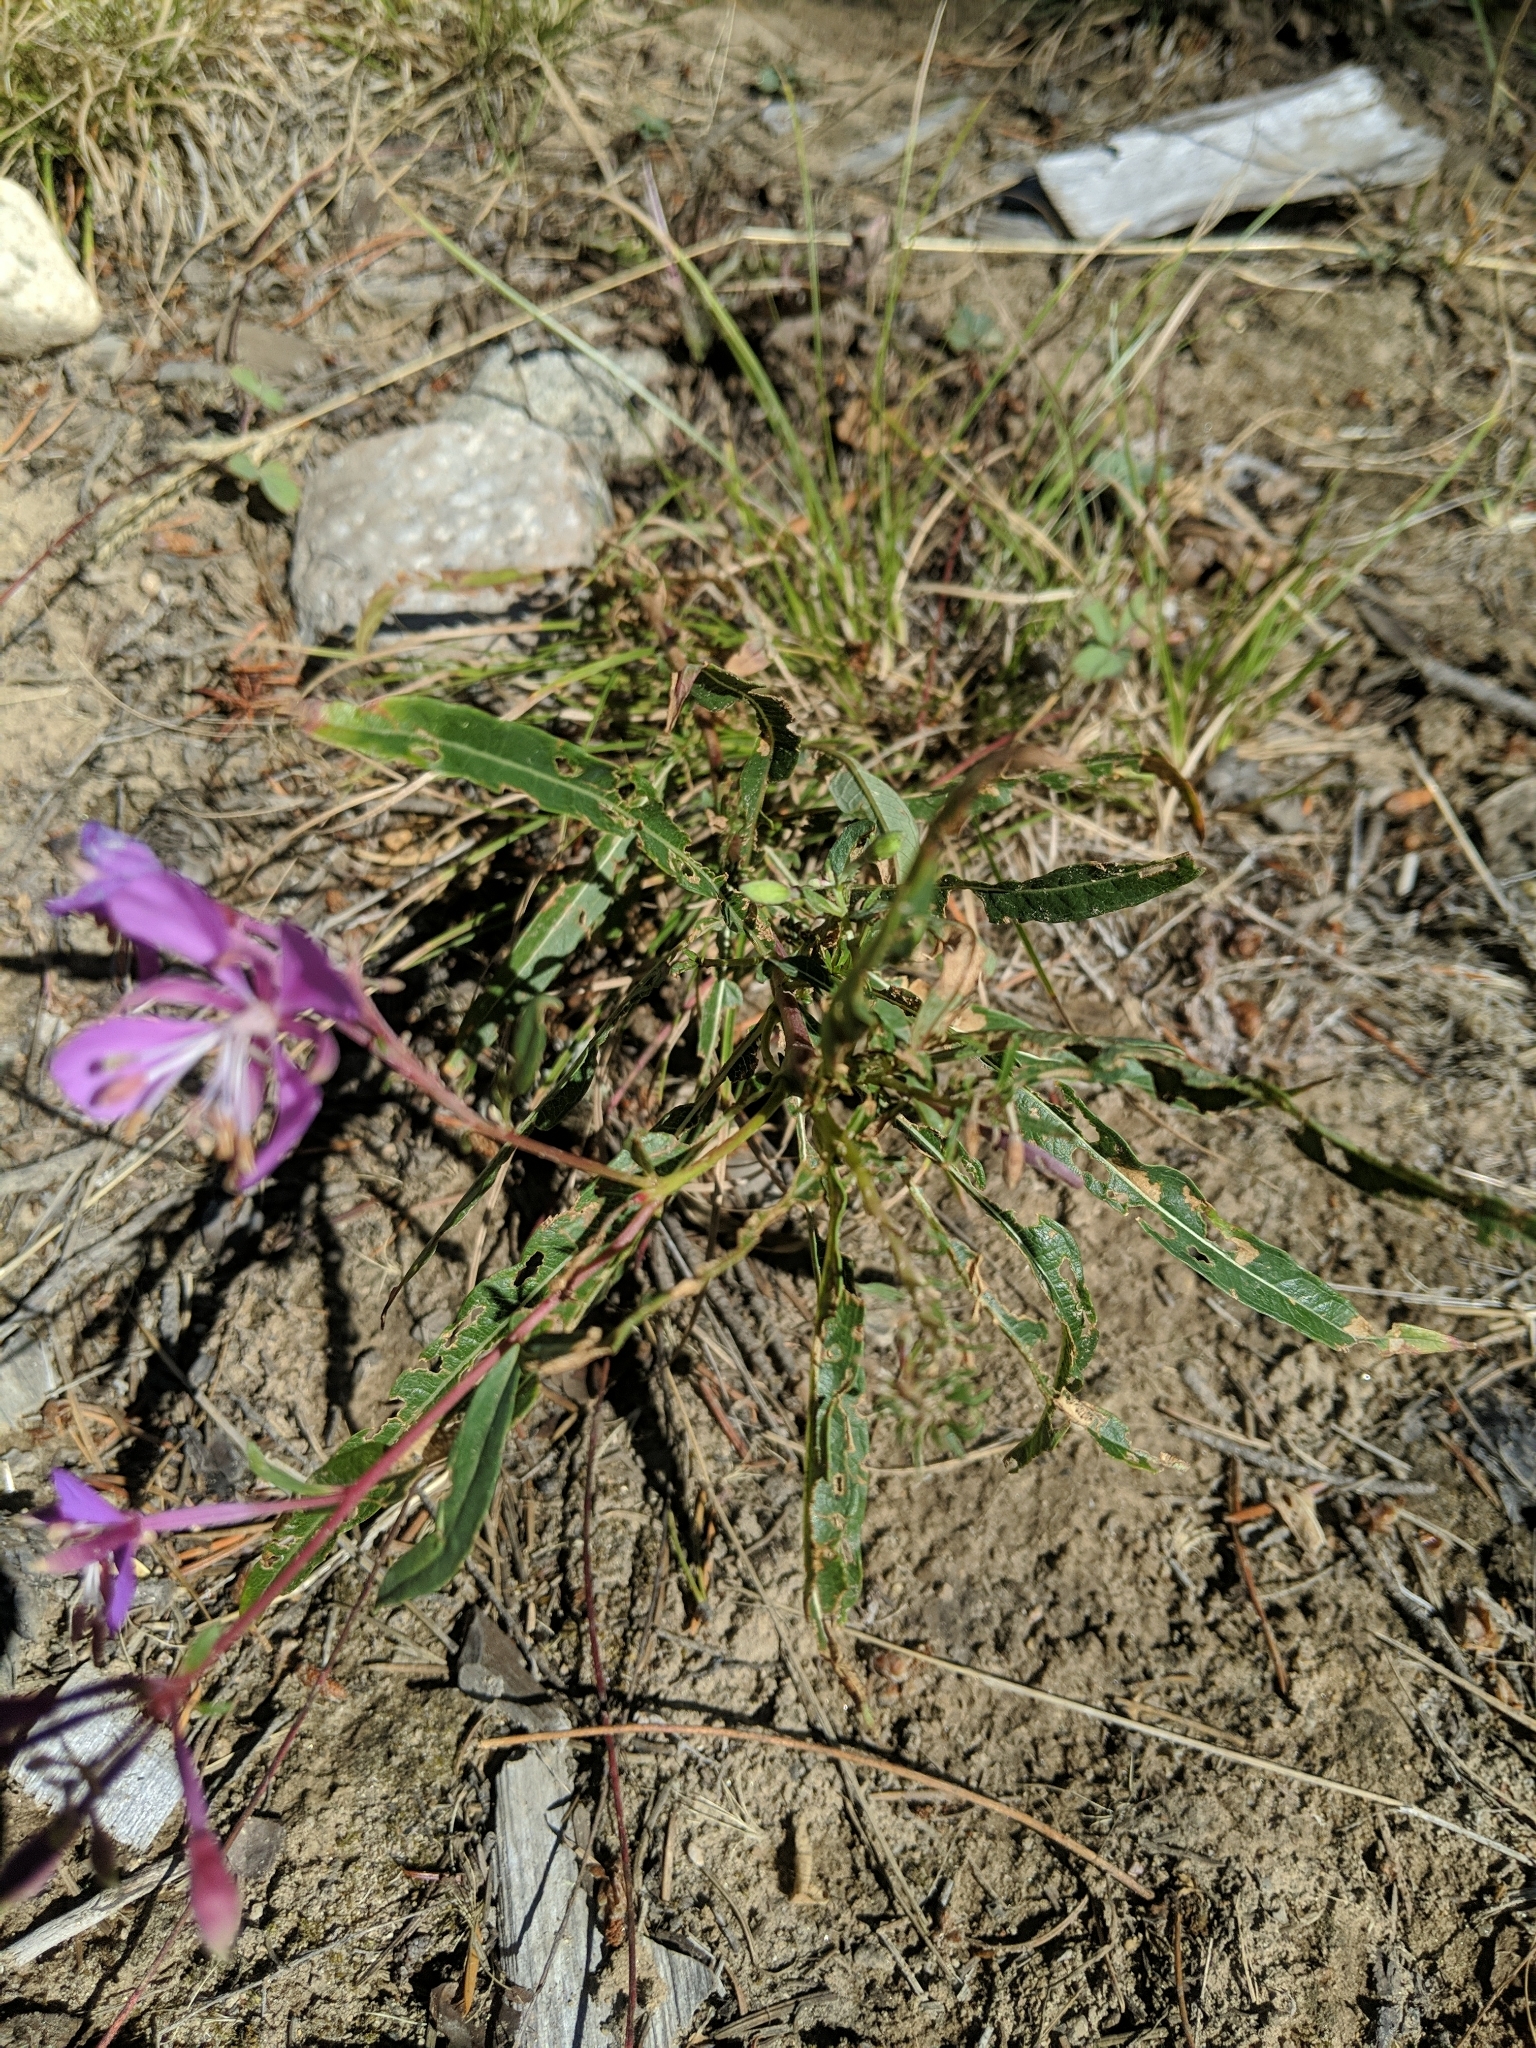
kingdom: Plantae
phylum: Tracheophyta
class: Magnoliopsida
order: Myrtales
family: Onagraceae
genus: Chamaenerion
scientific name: Chamaenerion angustifolium
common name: Fireweed
